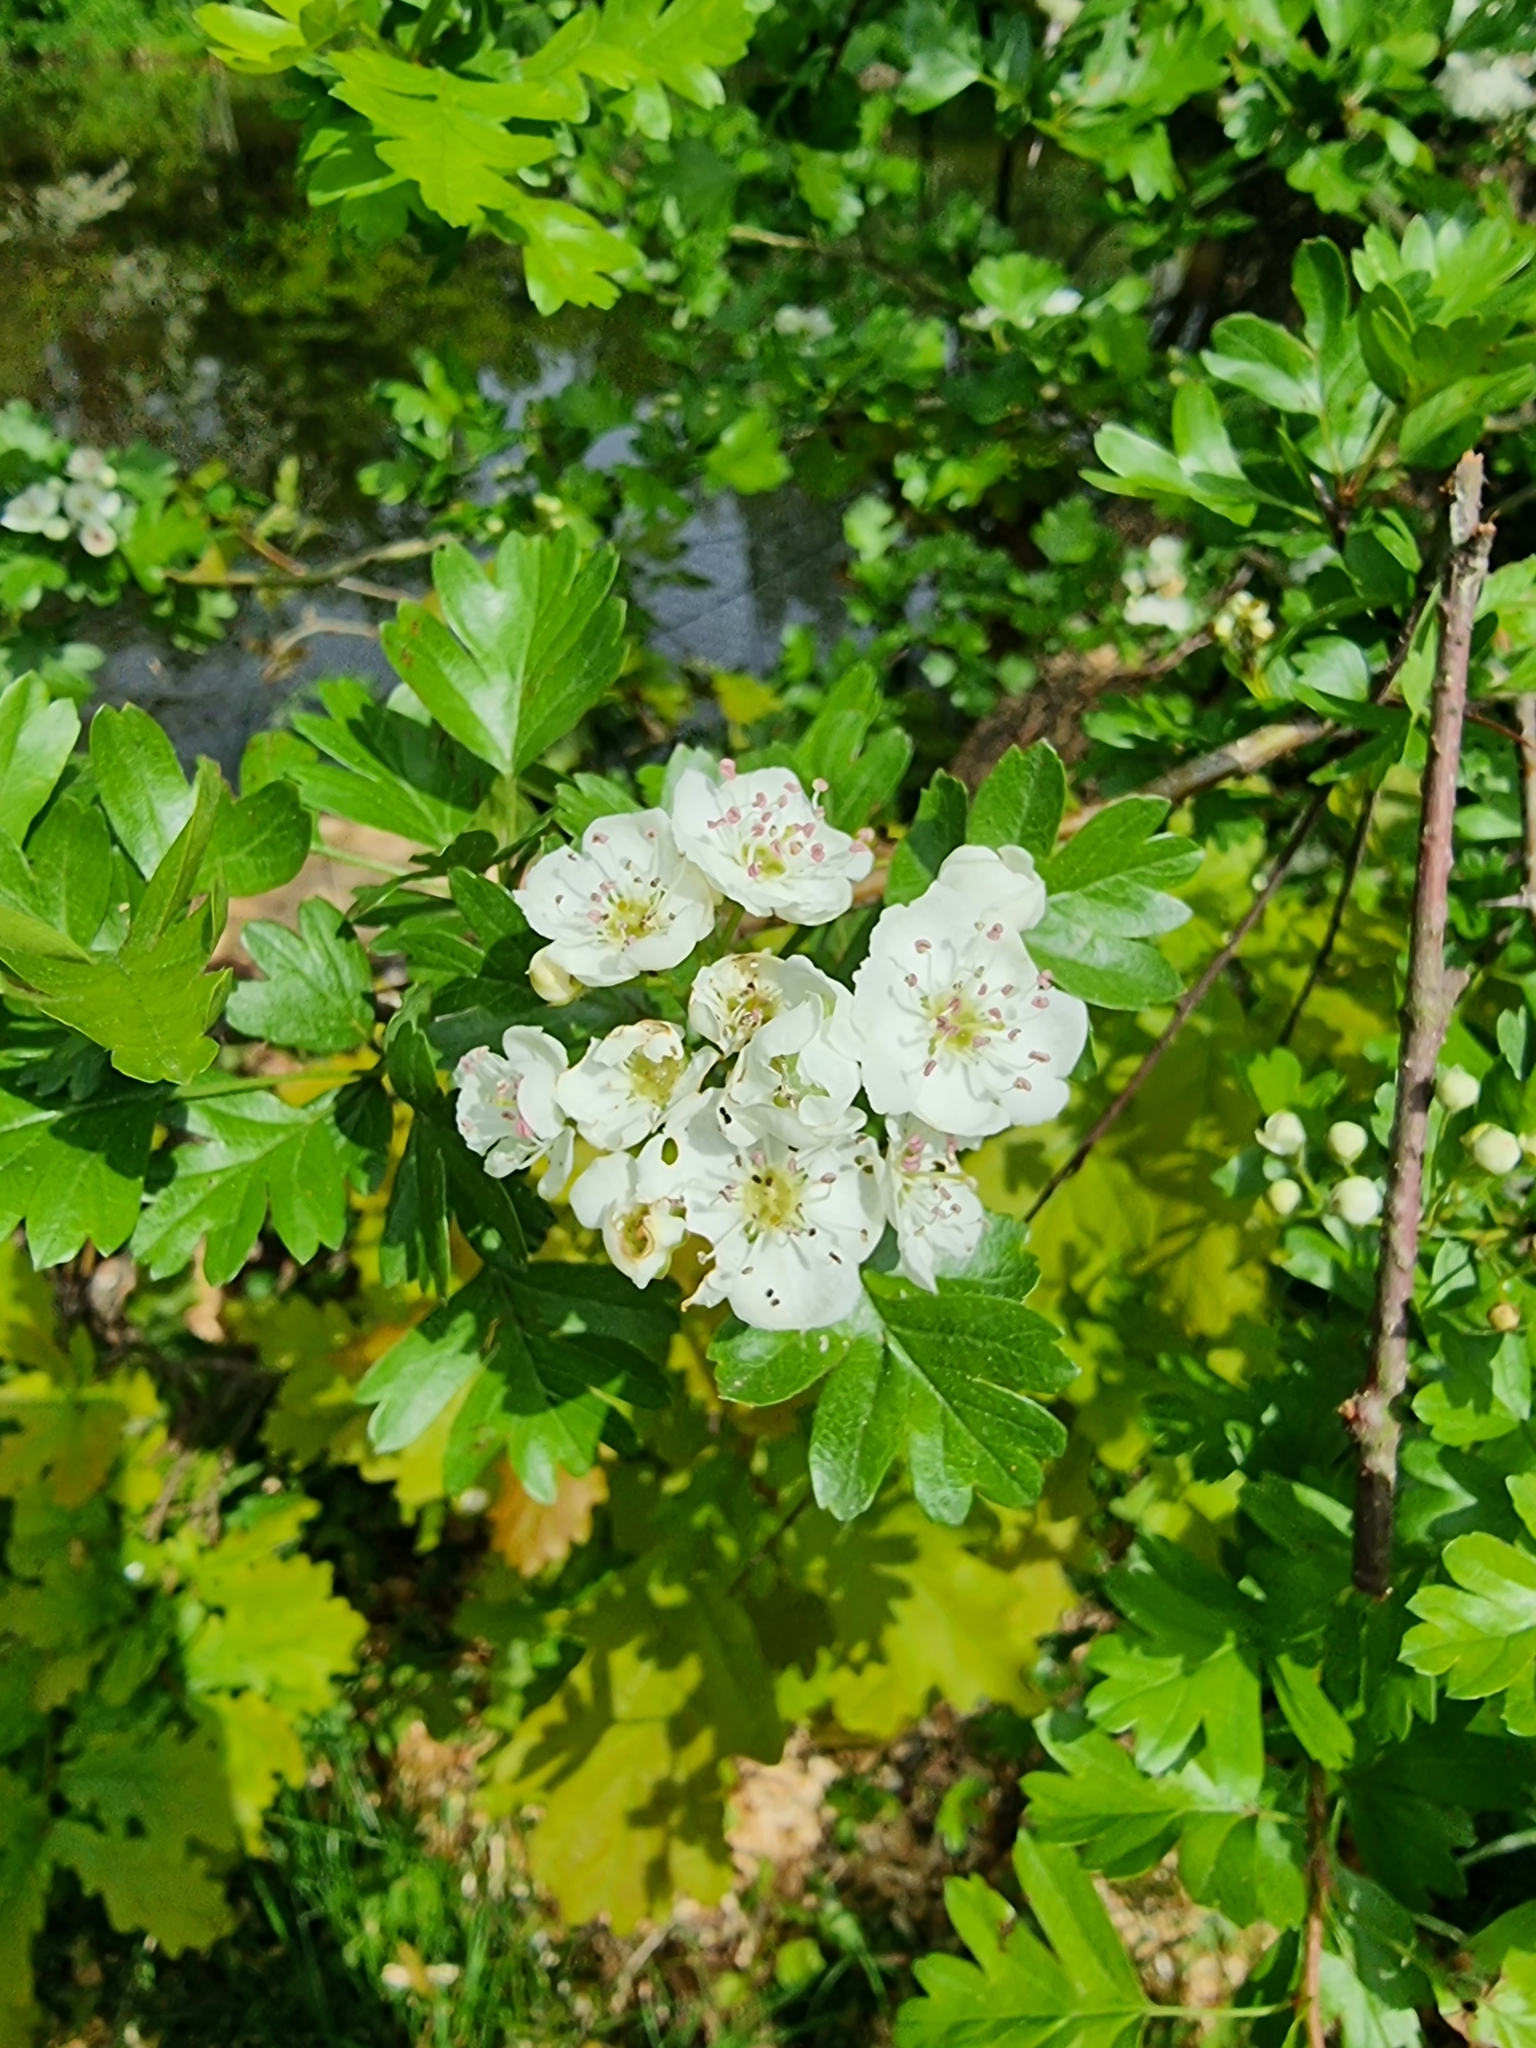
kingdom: Plantae
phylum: Tracheophyta
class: Magnoliopsida
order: Rosales
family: Rosaceae
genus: Crataegus
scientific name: Crataegus monogyna
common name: Hawthorn
